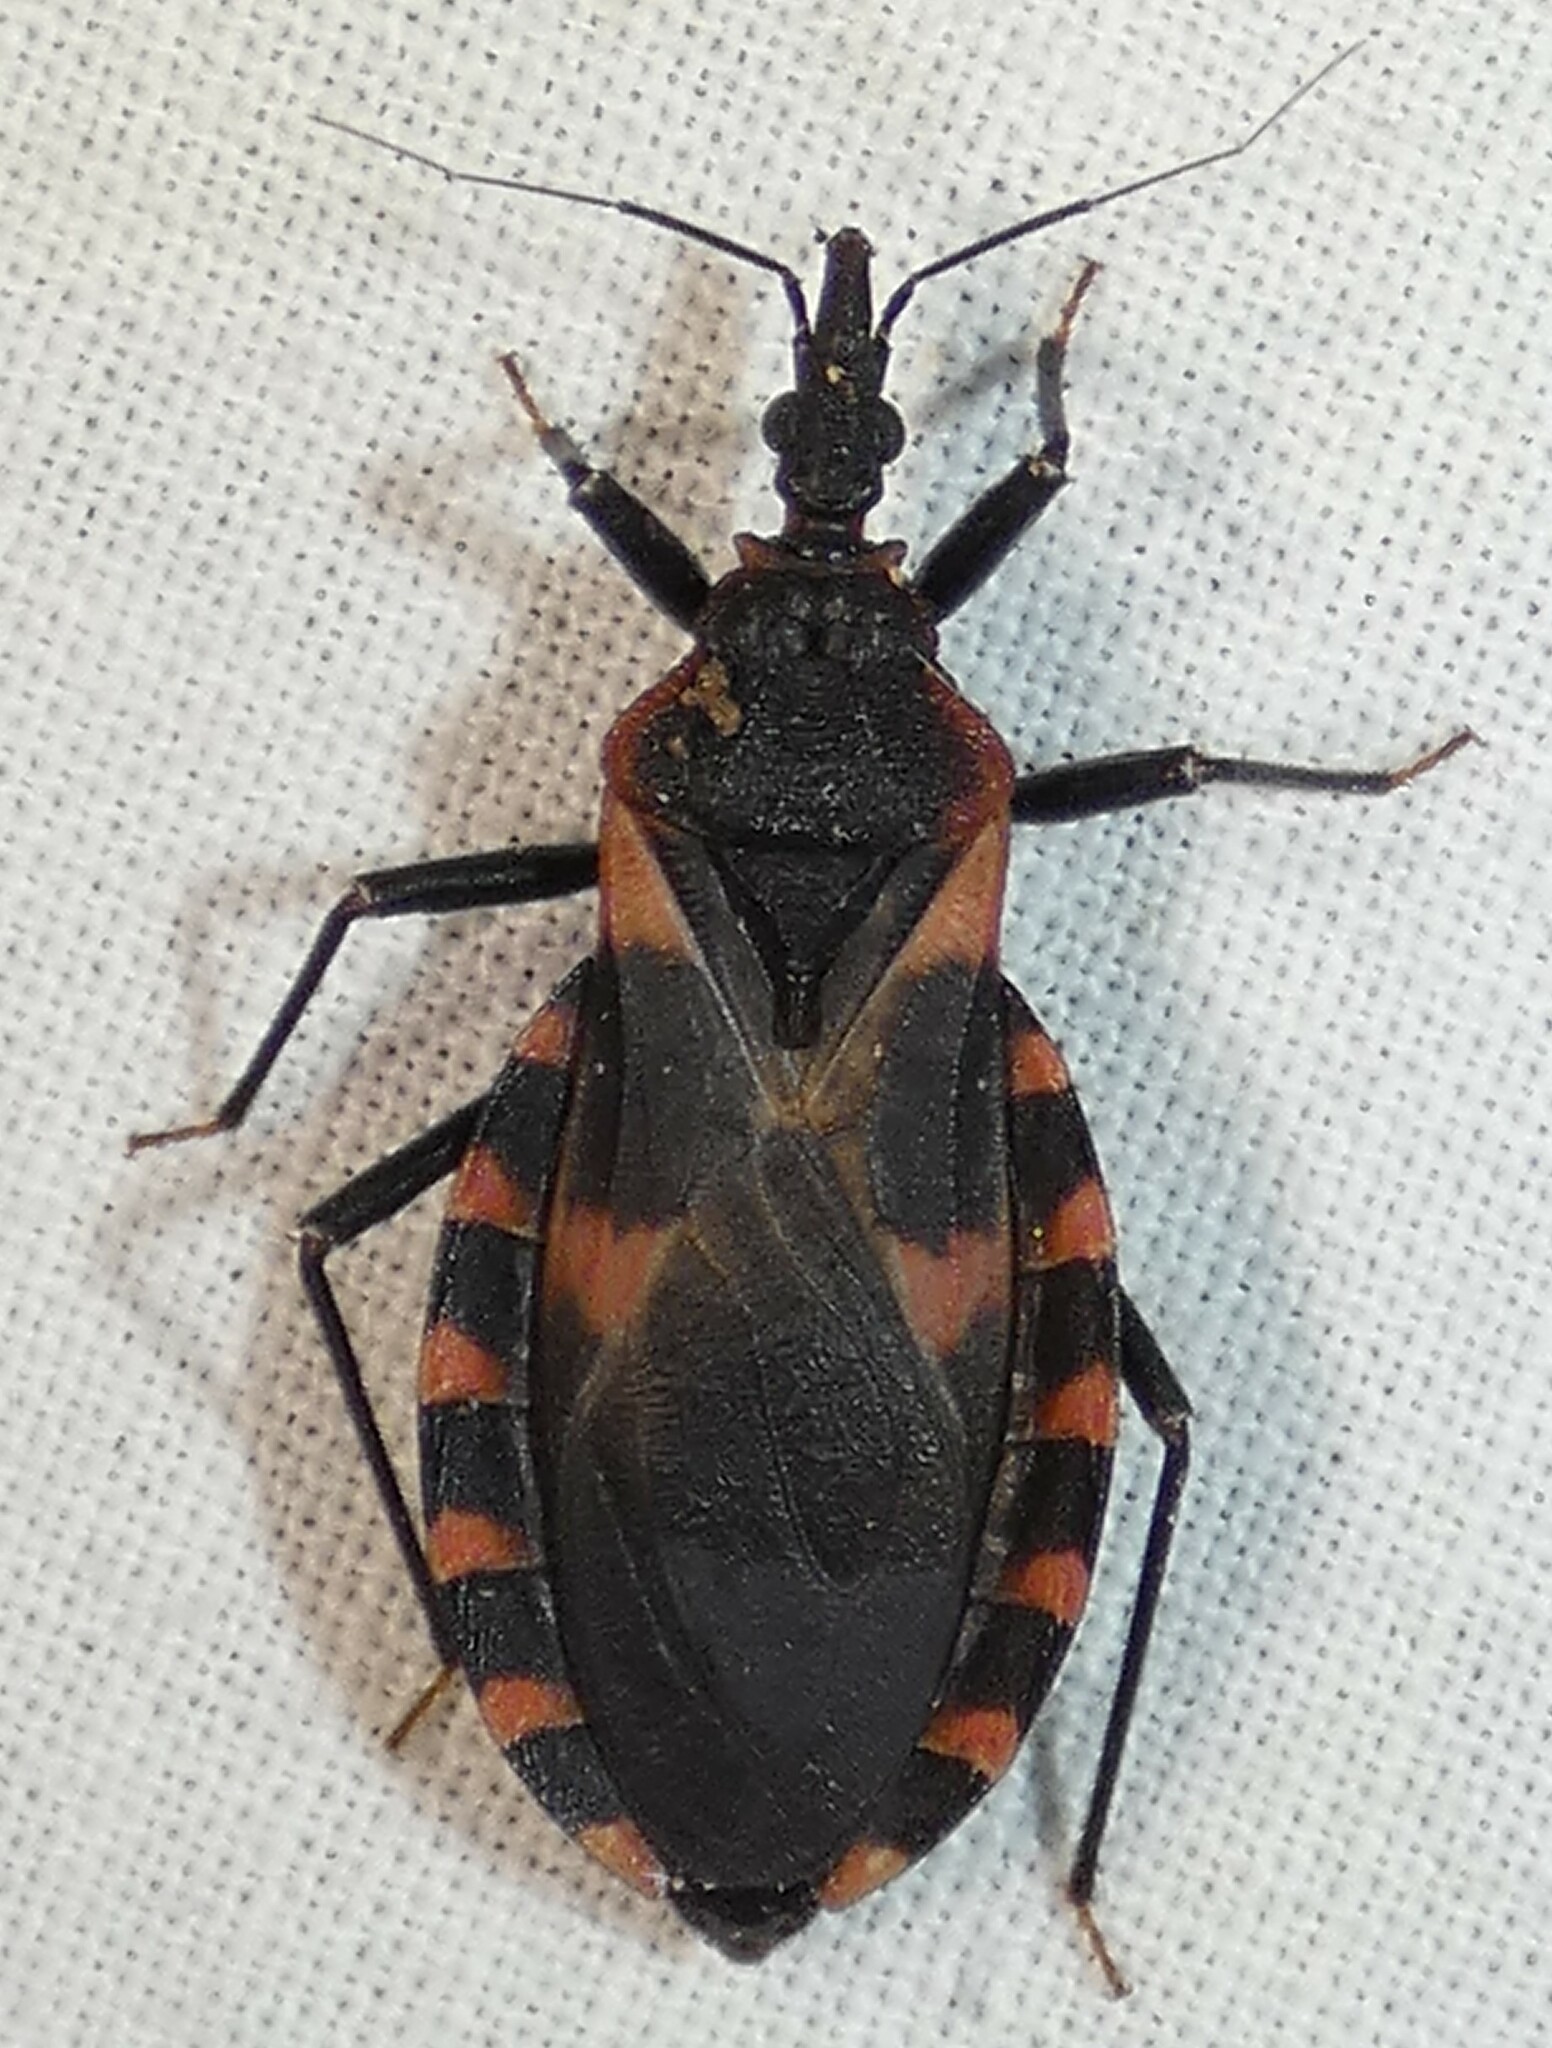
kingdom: Animalia
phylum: Arthropoda
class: Insecta
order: Hemiptera
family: Reduviidae
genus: Triatoma
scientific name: Triatoma sanguisuga
